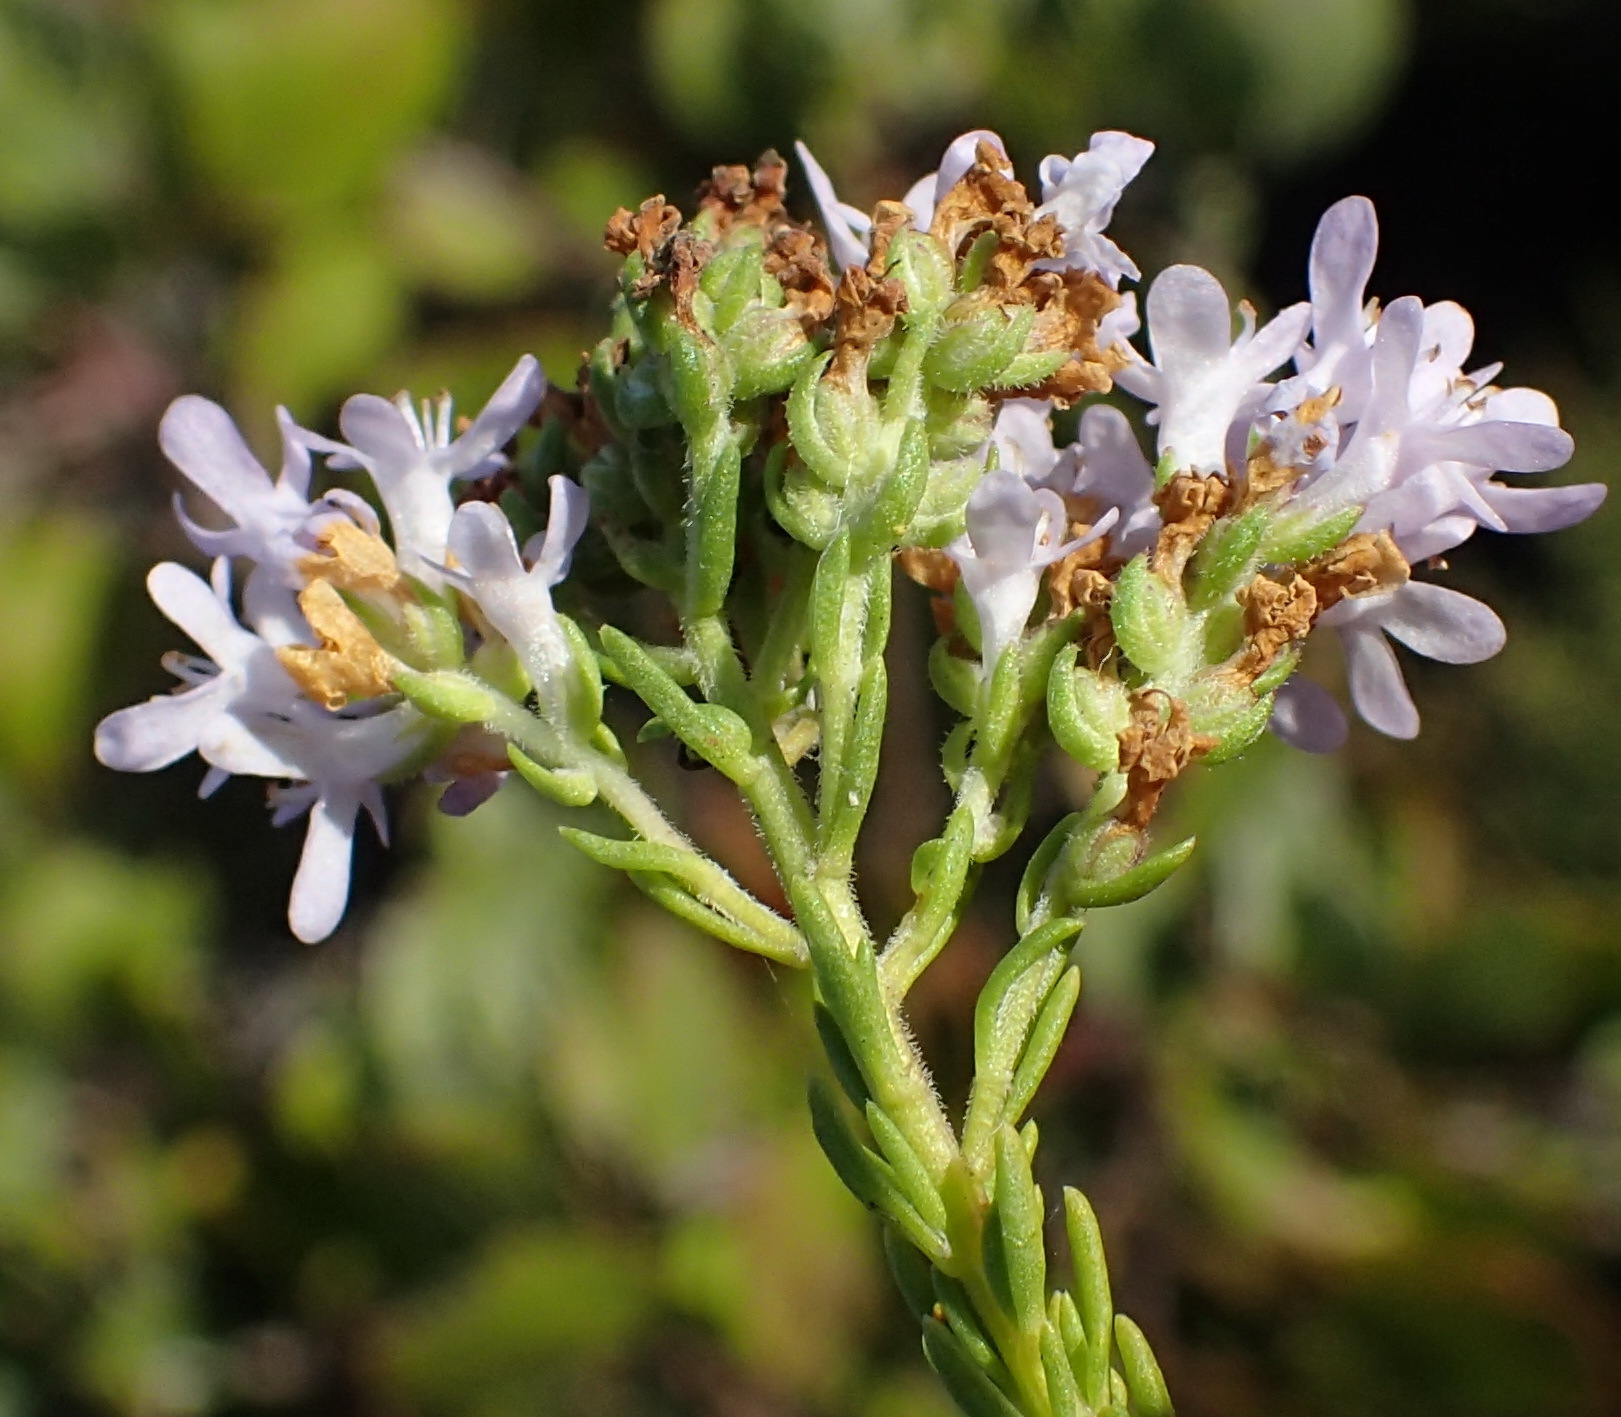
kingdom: Plantae
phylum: Tracheophyta
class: Magnoliopsida
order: Lamiales
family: Scrophulariaceae
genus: Selago
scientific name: Selago canescens
